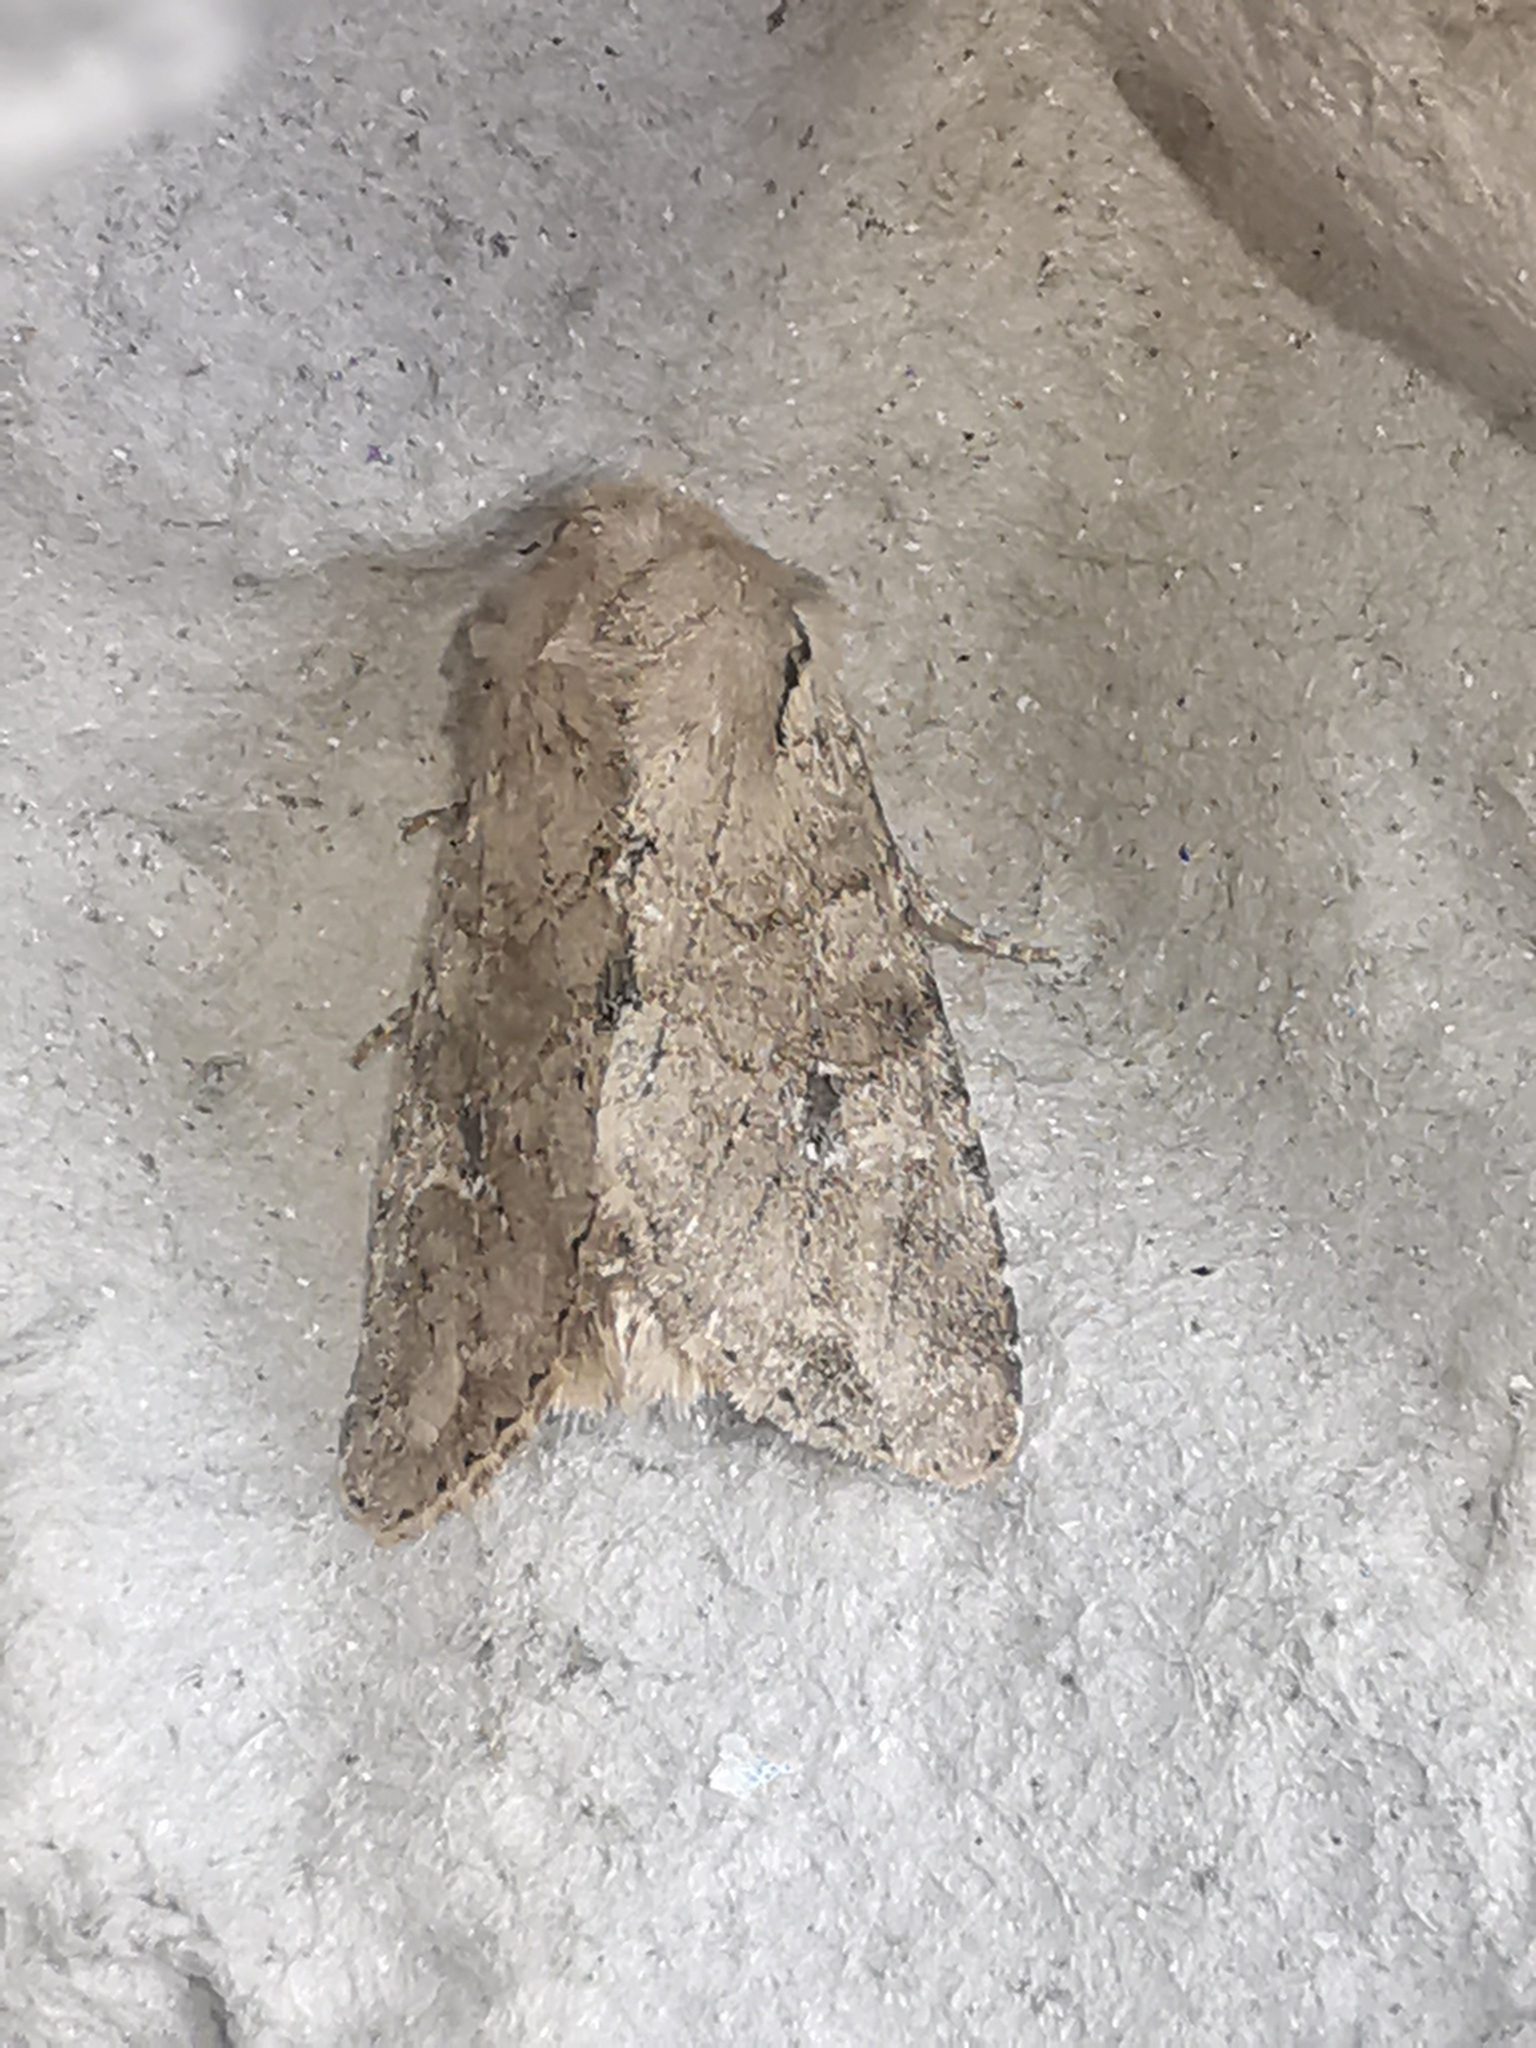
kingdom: Animalia
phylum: Arthropoda
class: Insecta
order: Lepidoptera
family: Noctuidae
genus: Apamea
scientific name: Apamea sordens
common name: Rustic shoulder-knot
